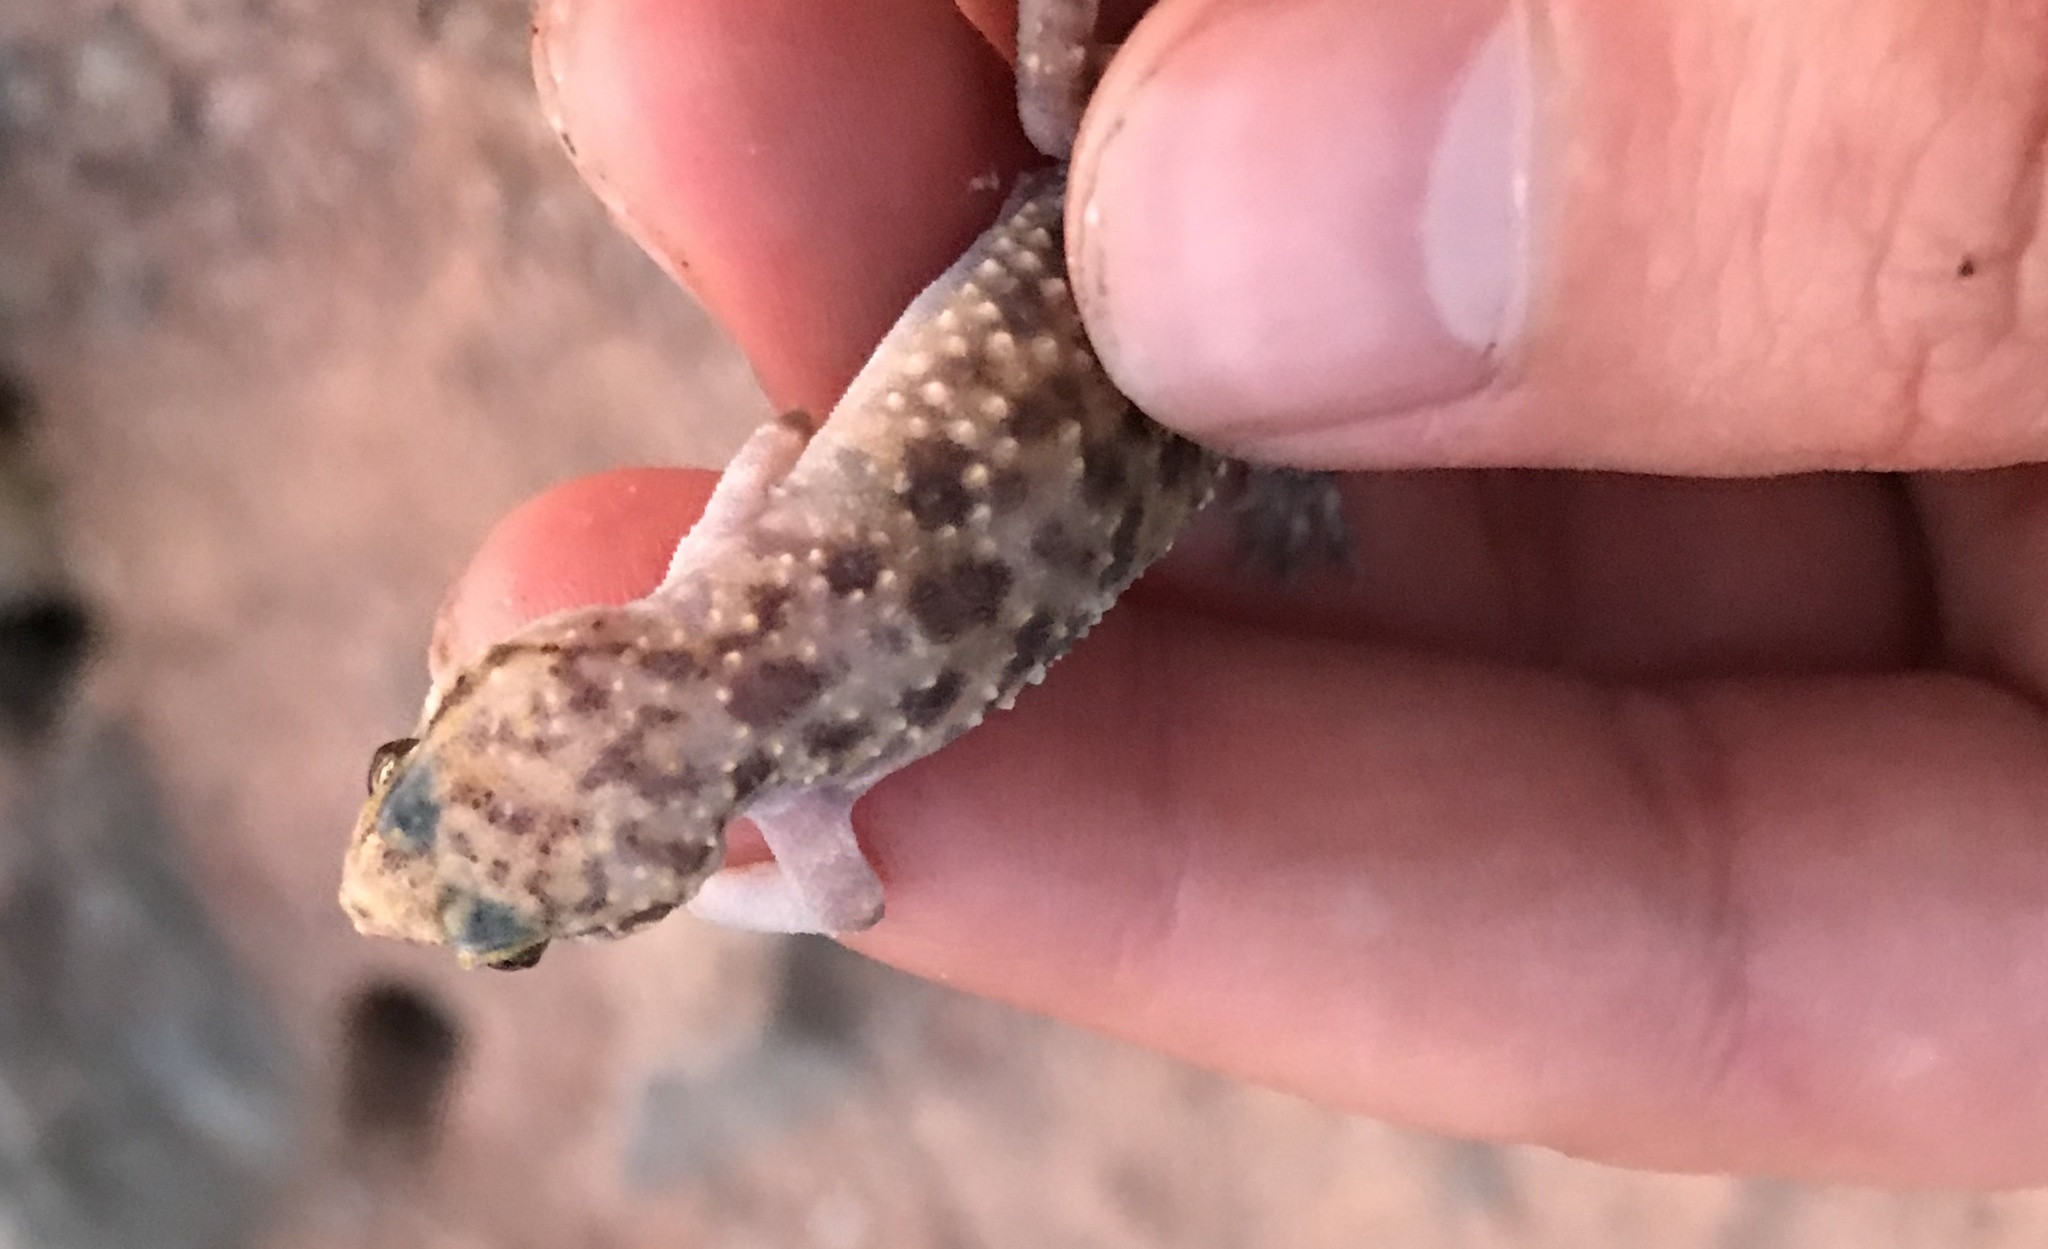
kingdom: Animalia
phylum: Chordata
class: Squamata
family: Gekkonidae
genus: Hemidactylus
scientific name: Hemidactylus turcicus
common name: Turkish gecko
